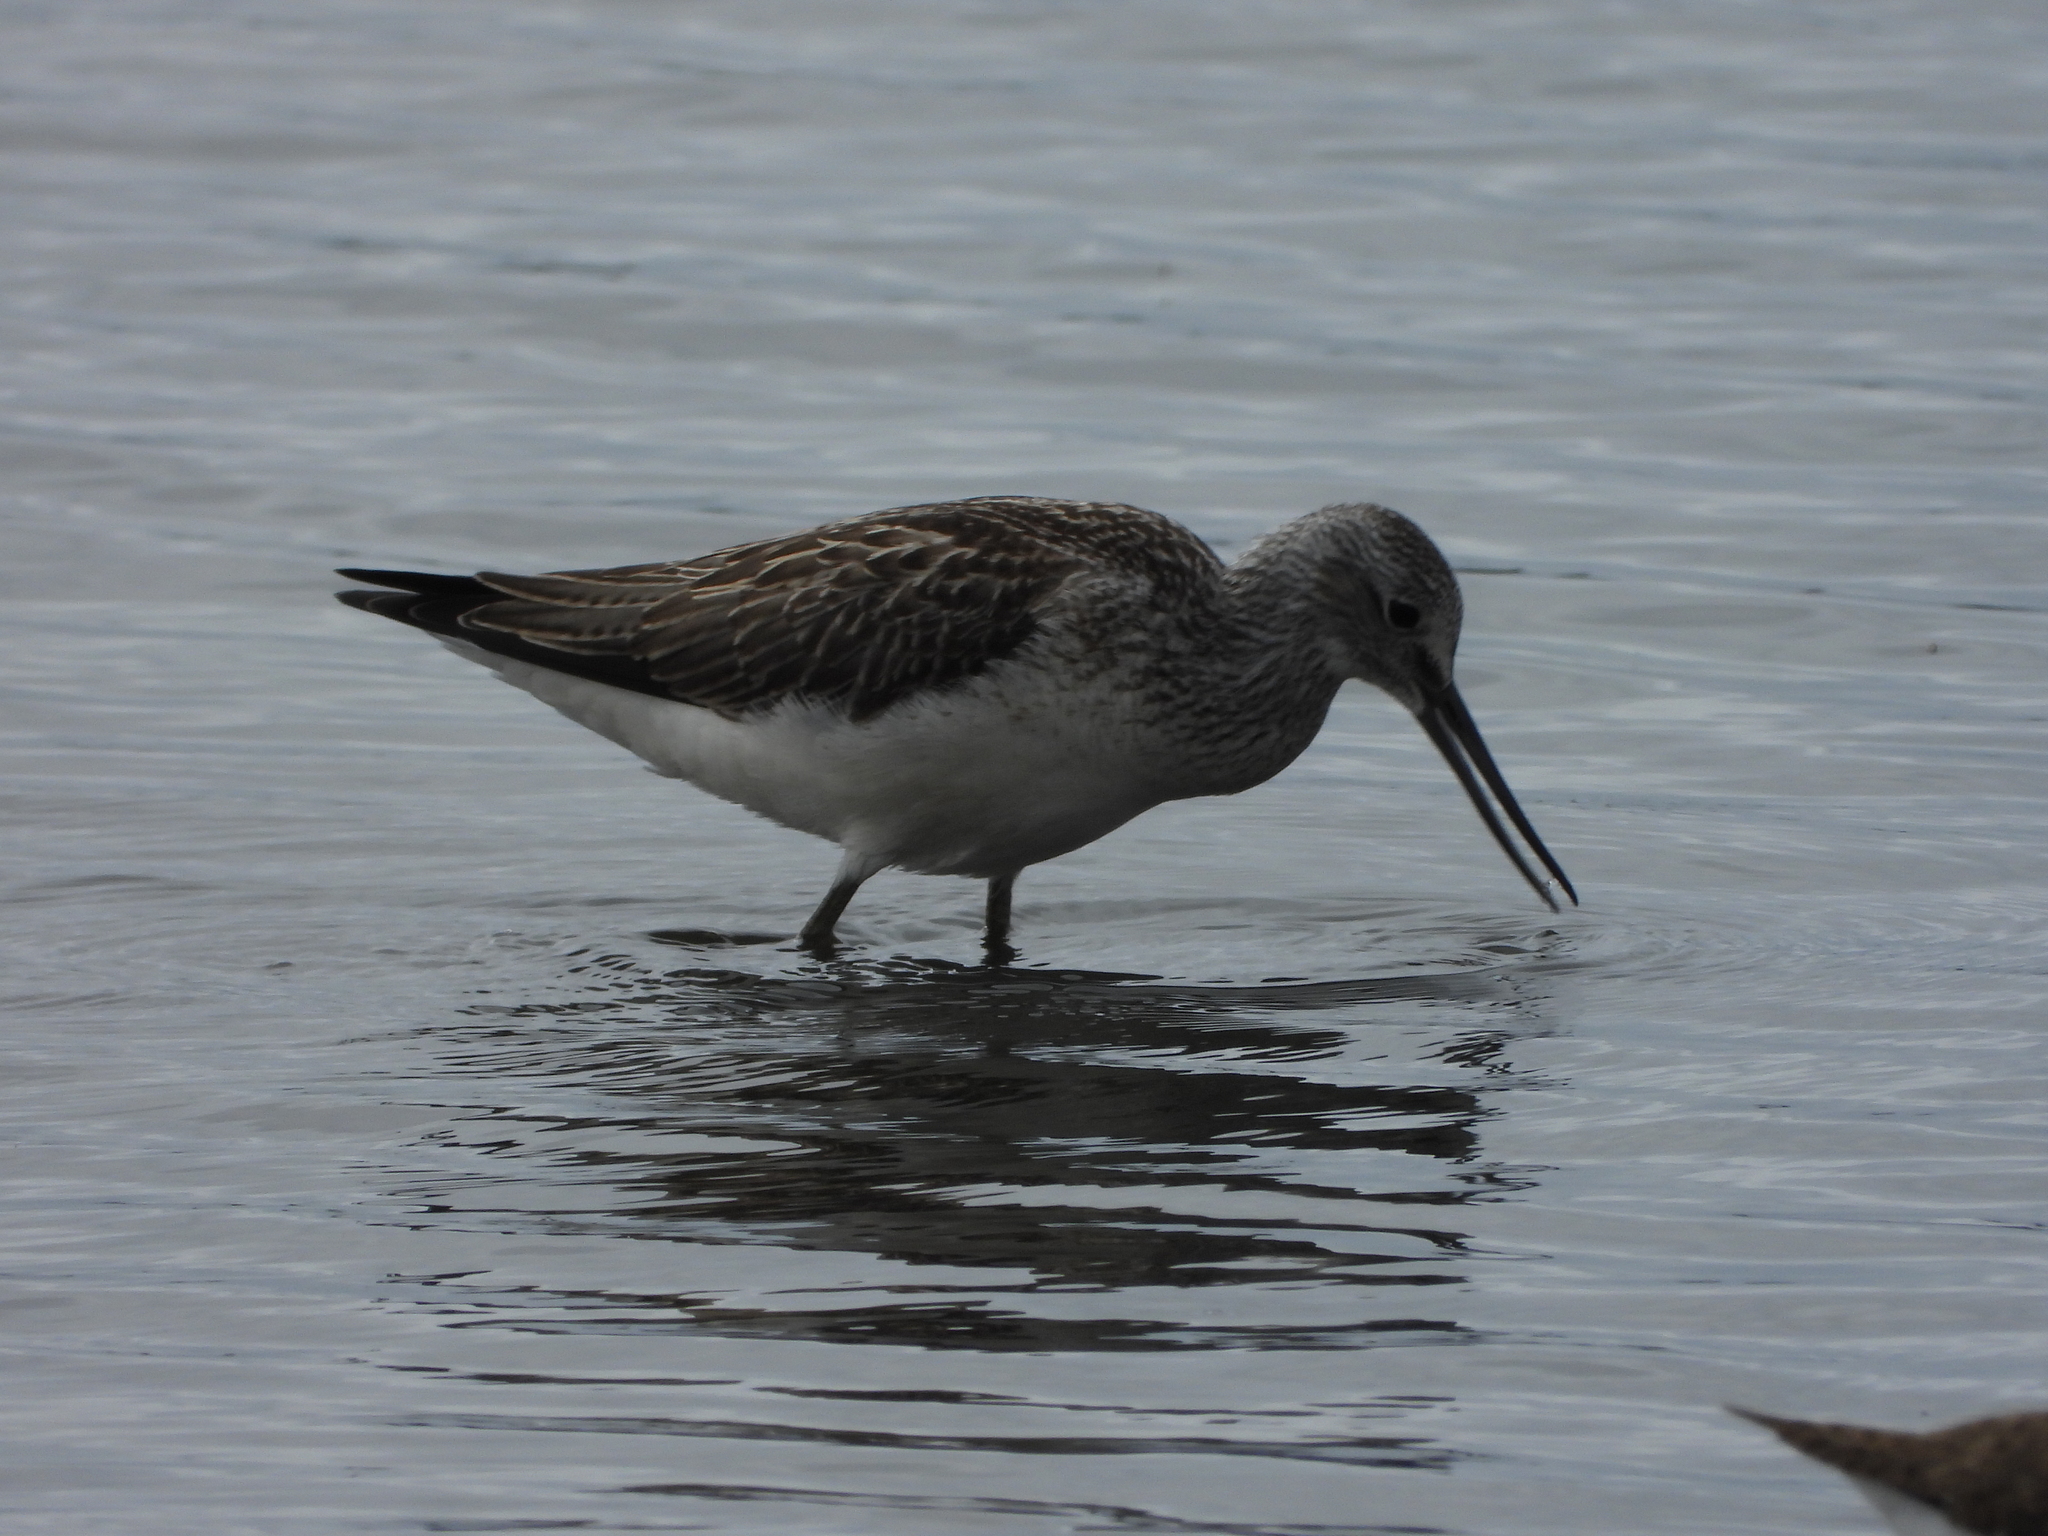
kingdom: Animalia
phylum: Chordata
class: Aves
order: Charadriiformes
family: Scolopacidae
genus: Tringa
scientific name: Tringa nebularia
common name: Common greenshank
